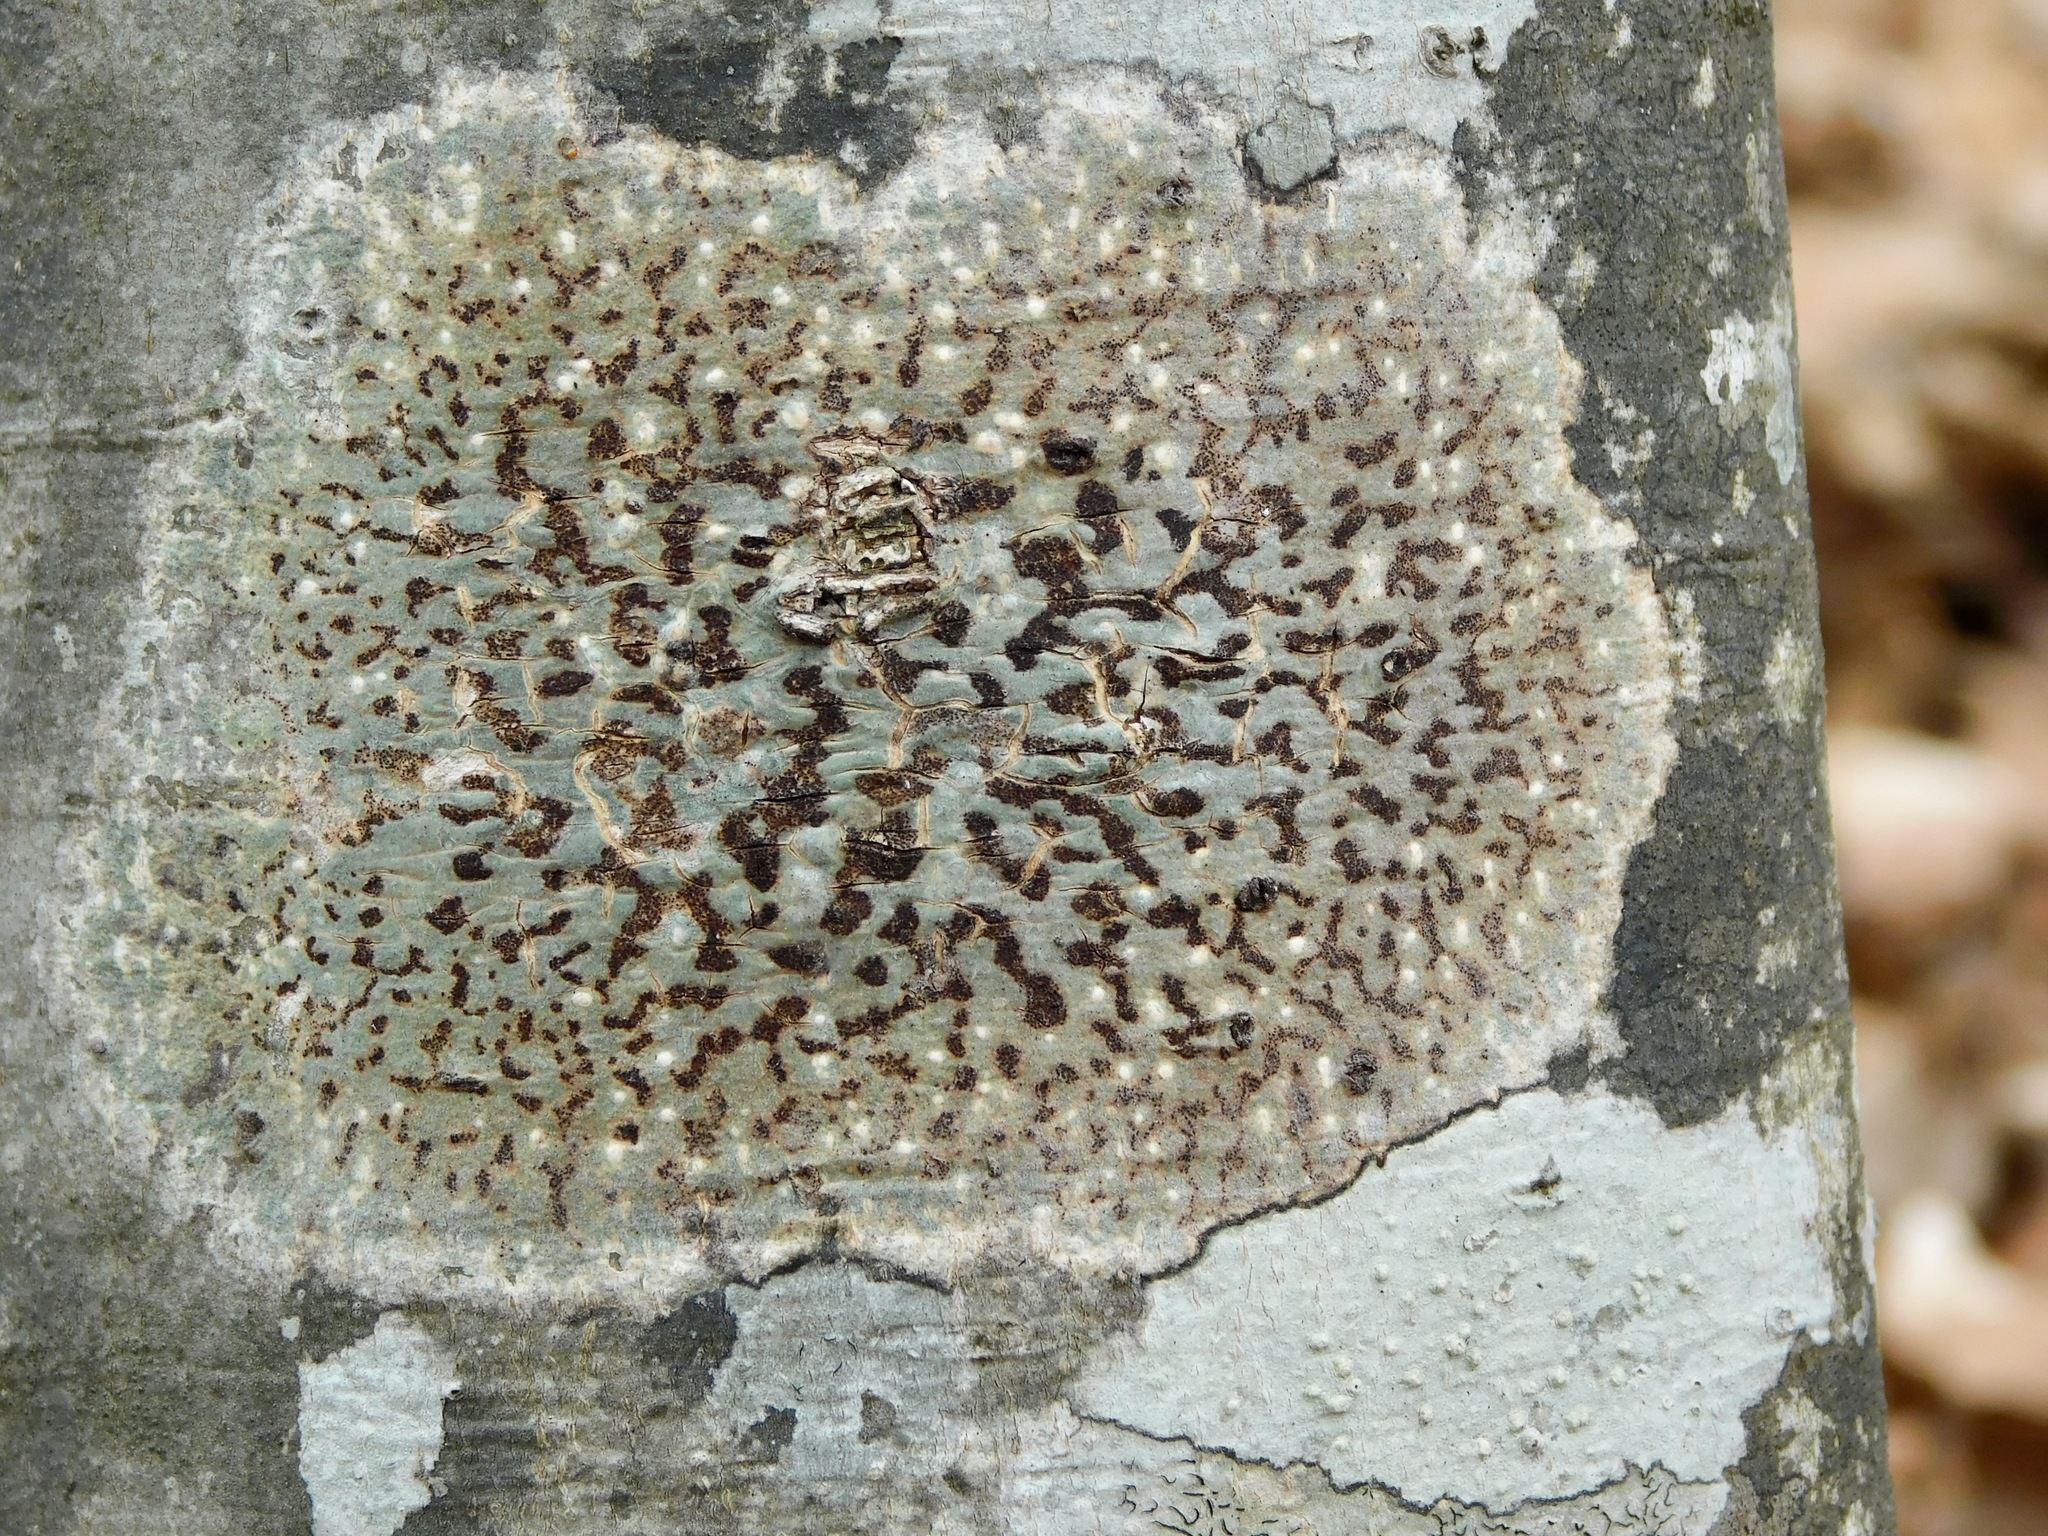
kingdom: Fungi
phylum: Ascomycota
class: Dothideomycetes
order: Trypetheliales
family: Trypetheliaceae
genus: Viridothelium
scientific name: Viridothelium virens
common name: Speckled blister lichen
